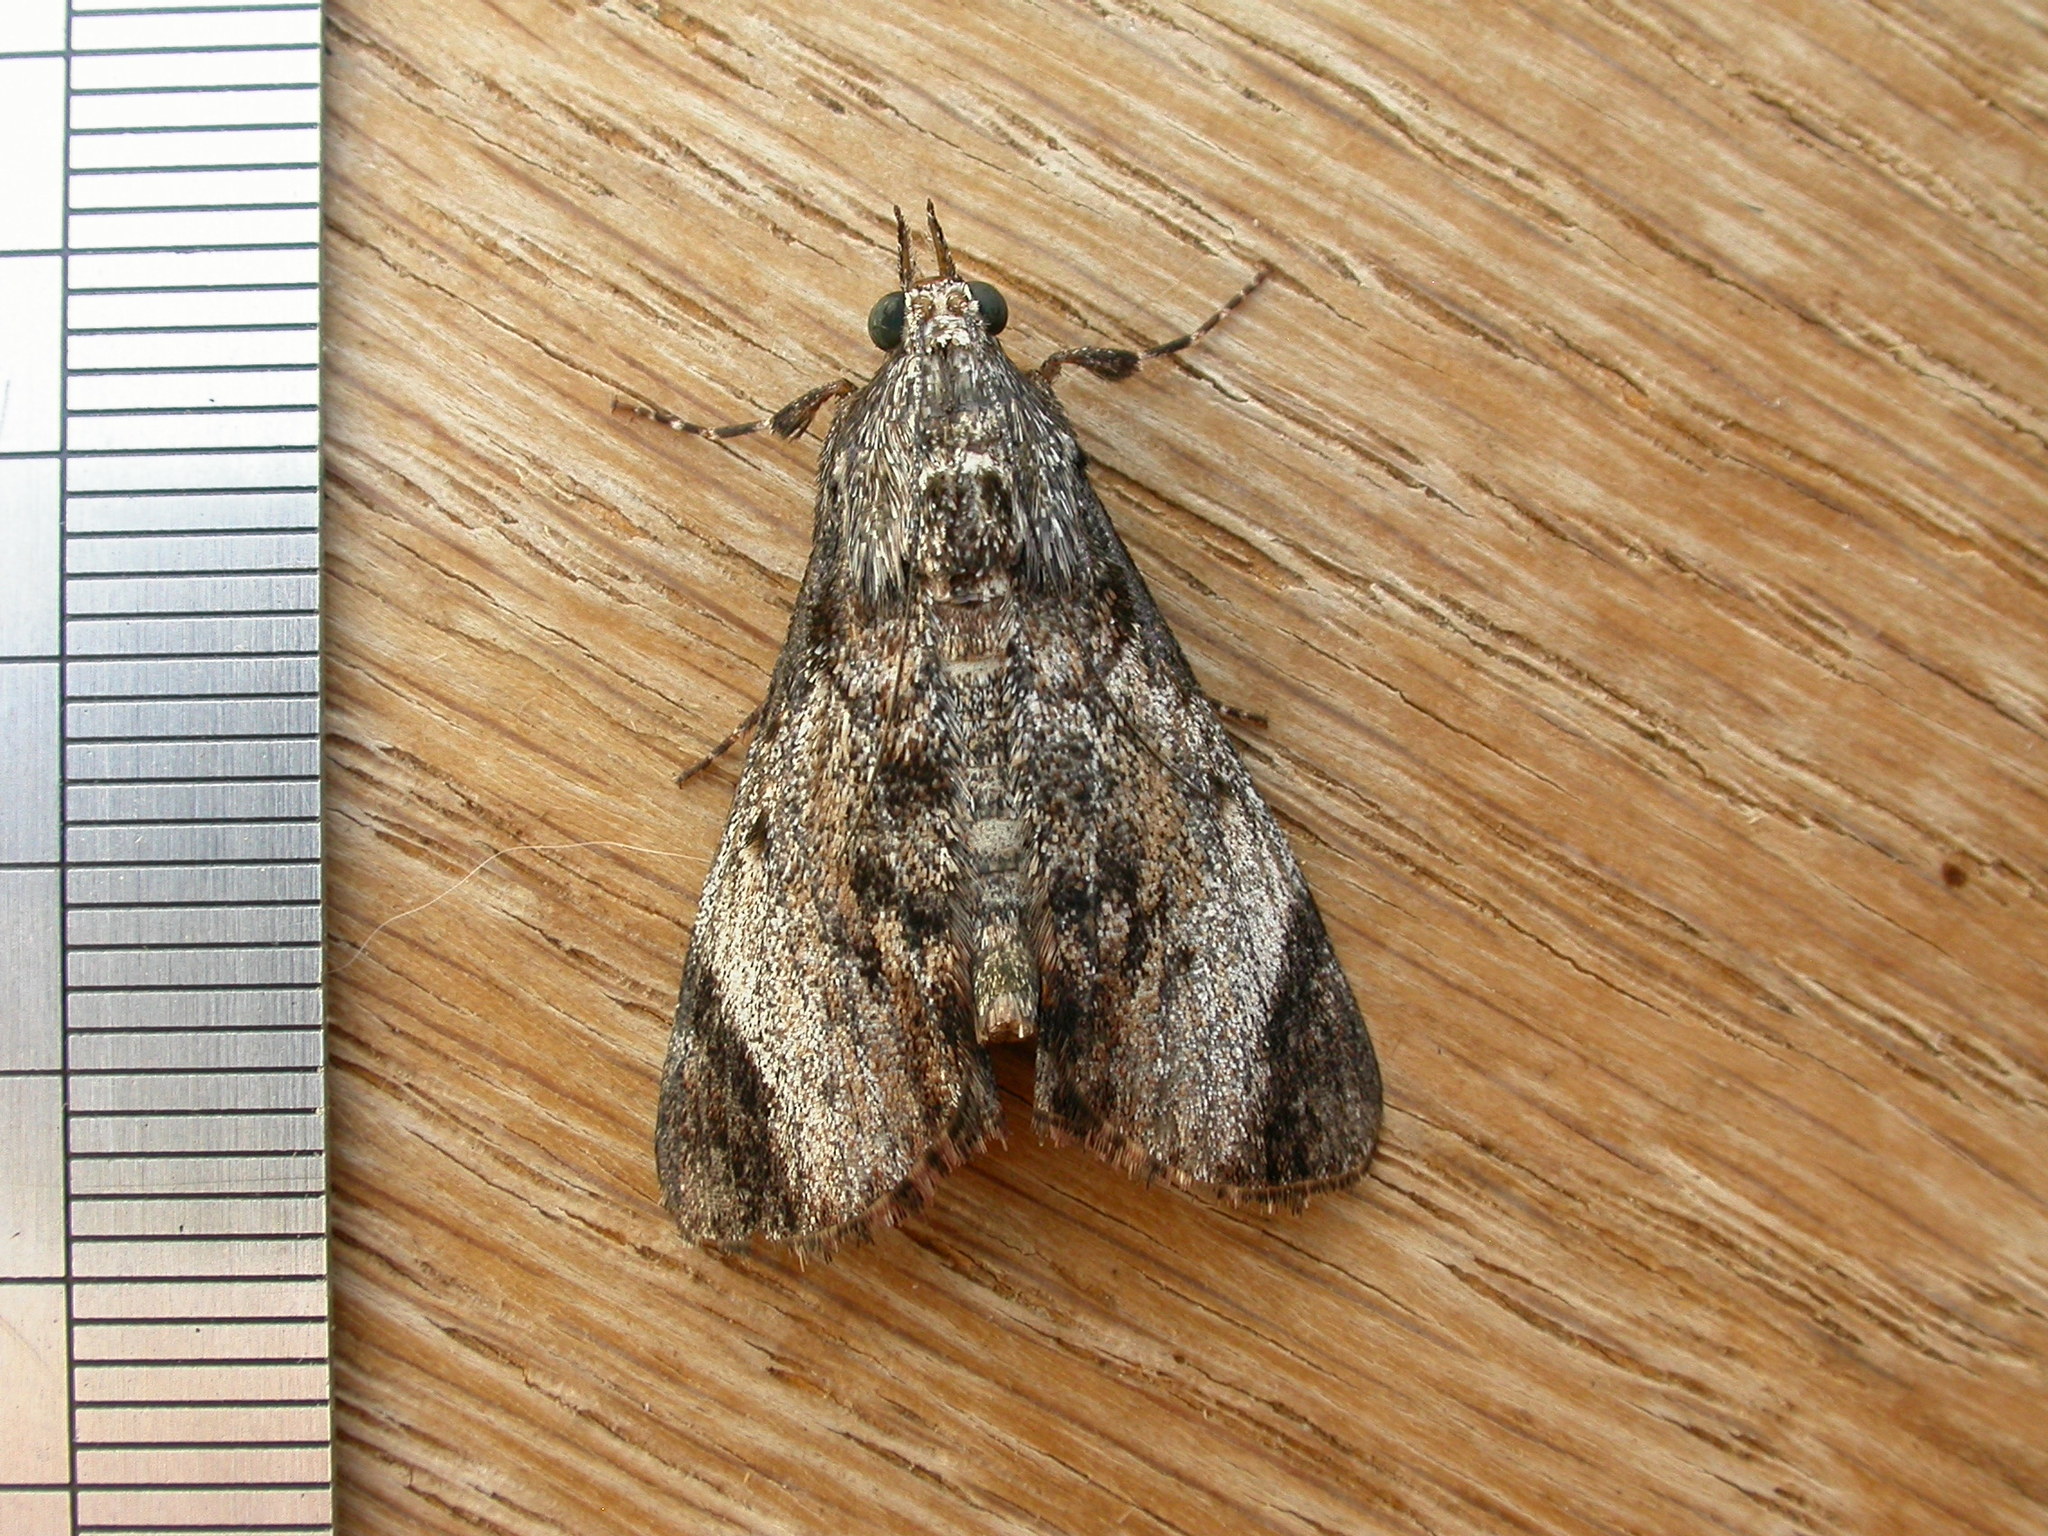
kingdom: Animalia
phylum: Arthropoda
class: Insecta
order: Lepidoptera
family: Pyralidae
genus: Salma
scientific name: Salma pyrastis
